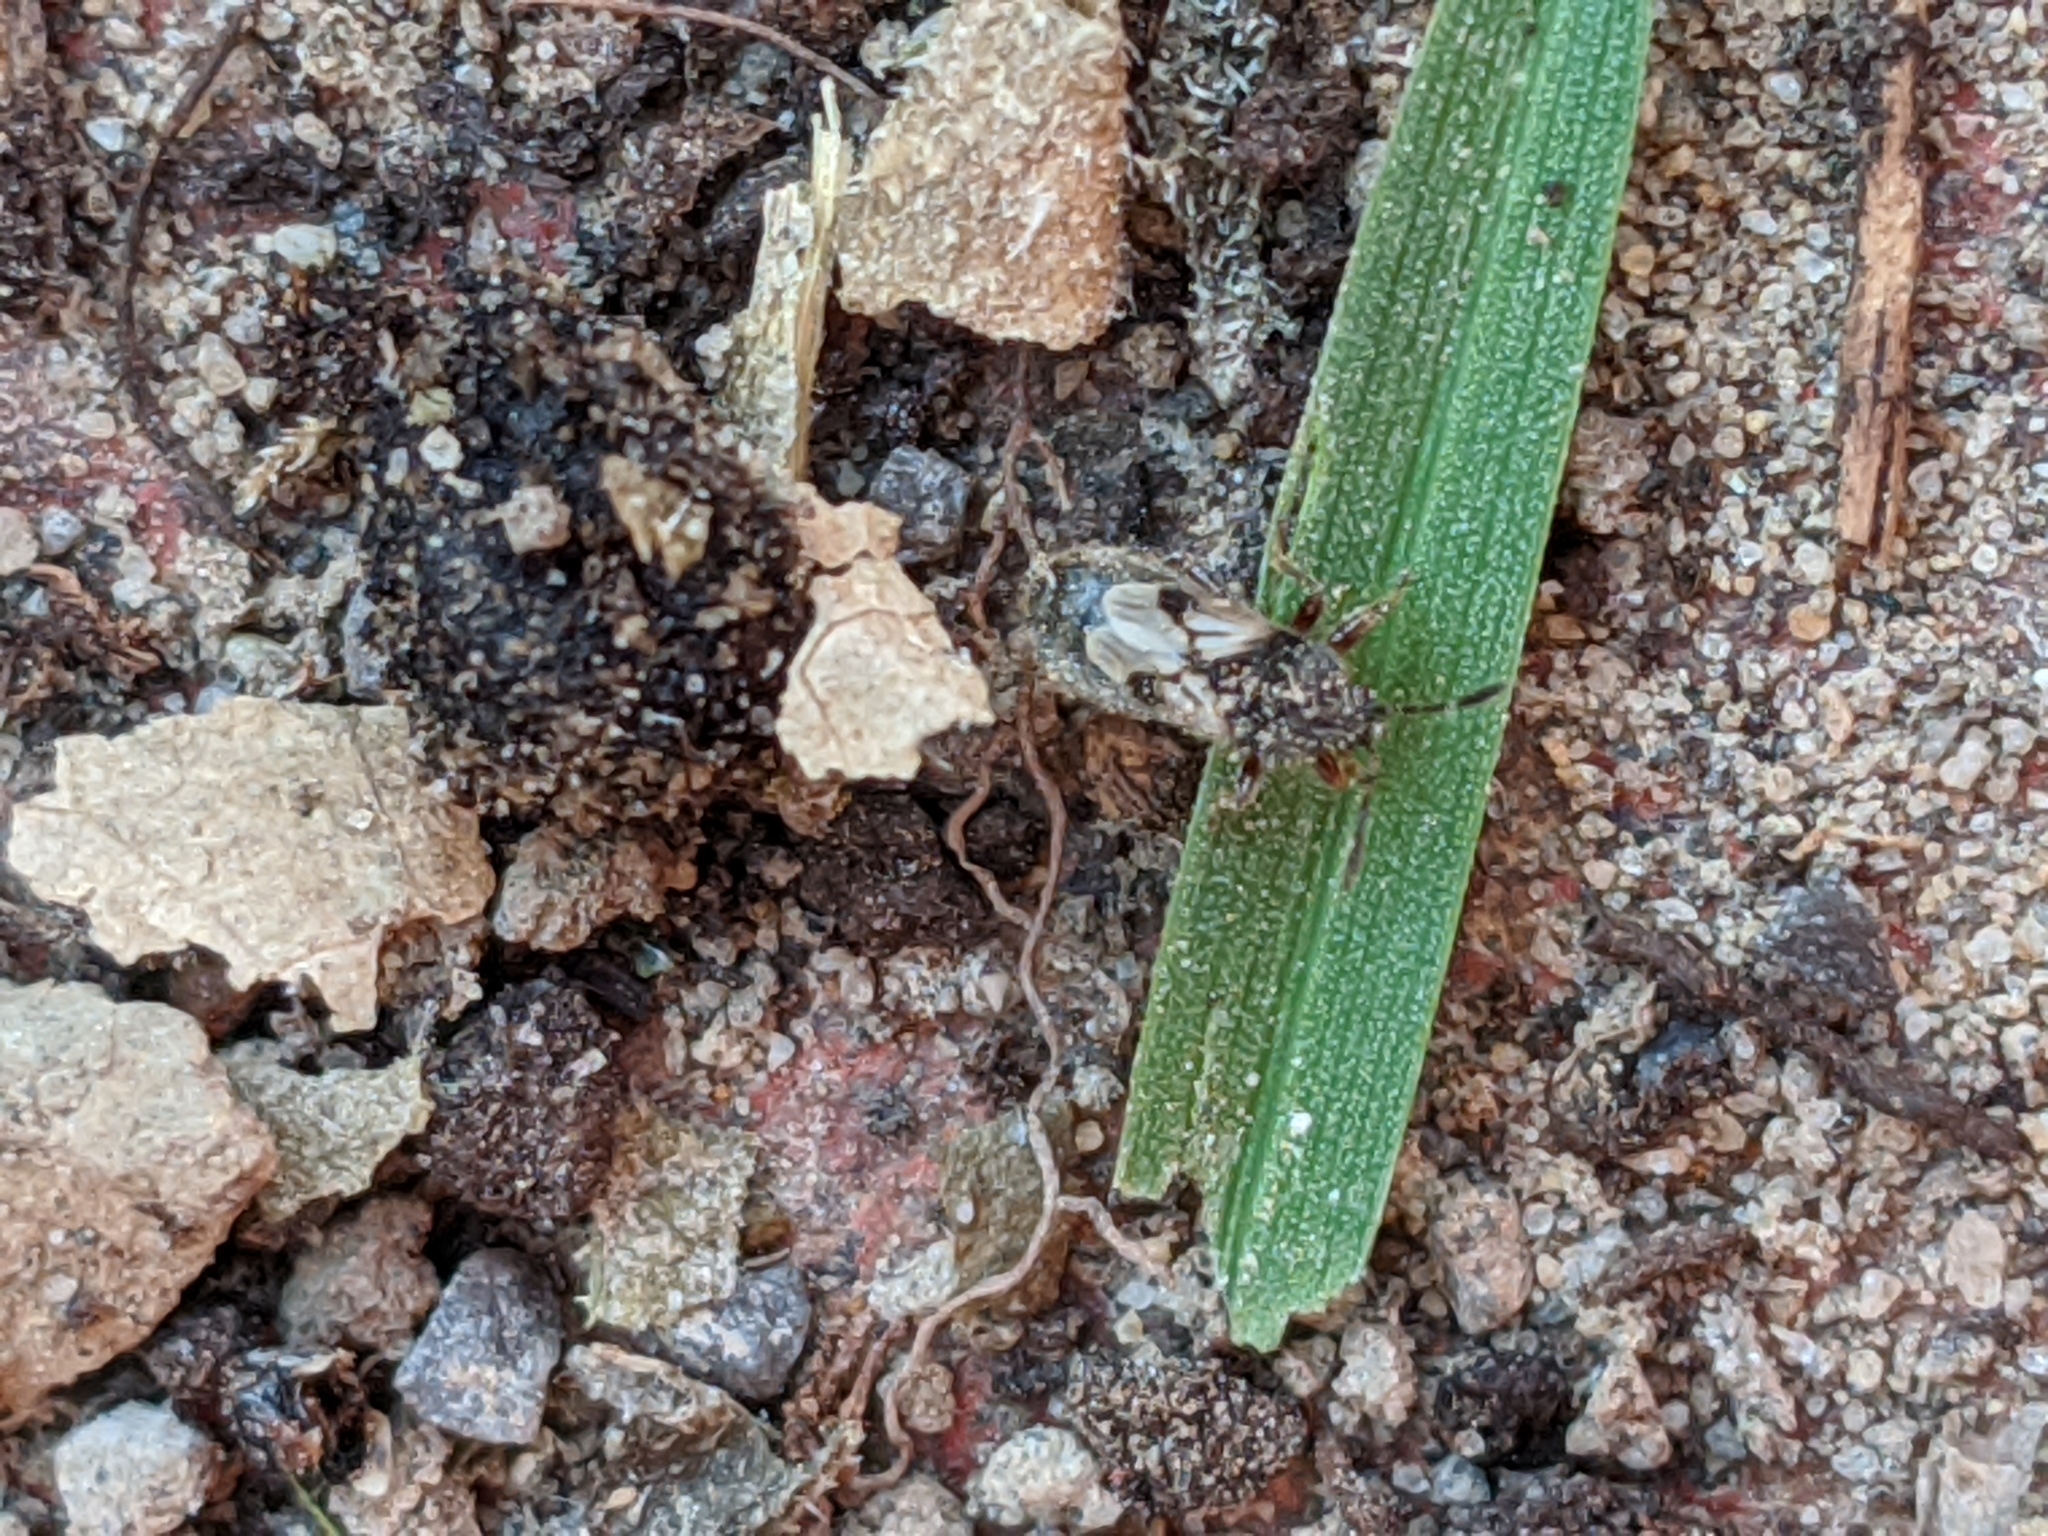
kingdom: Animalia
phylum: Arthropoda
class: Insecta
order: Hemiptera
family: Blissidae
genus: Blissus
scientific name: Blissus leucopterus
